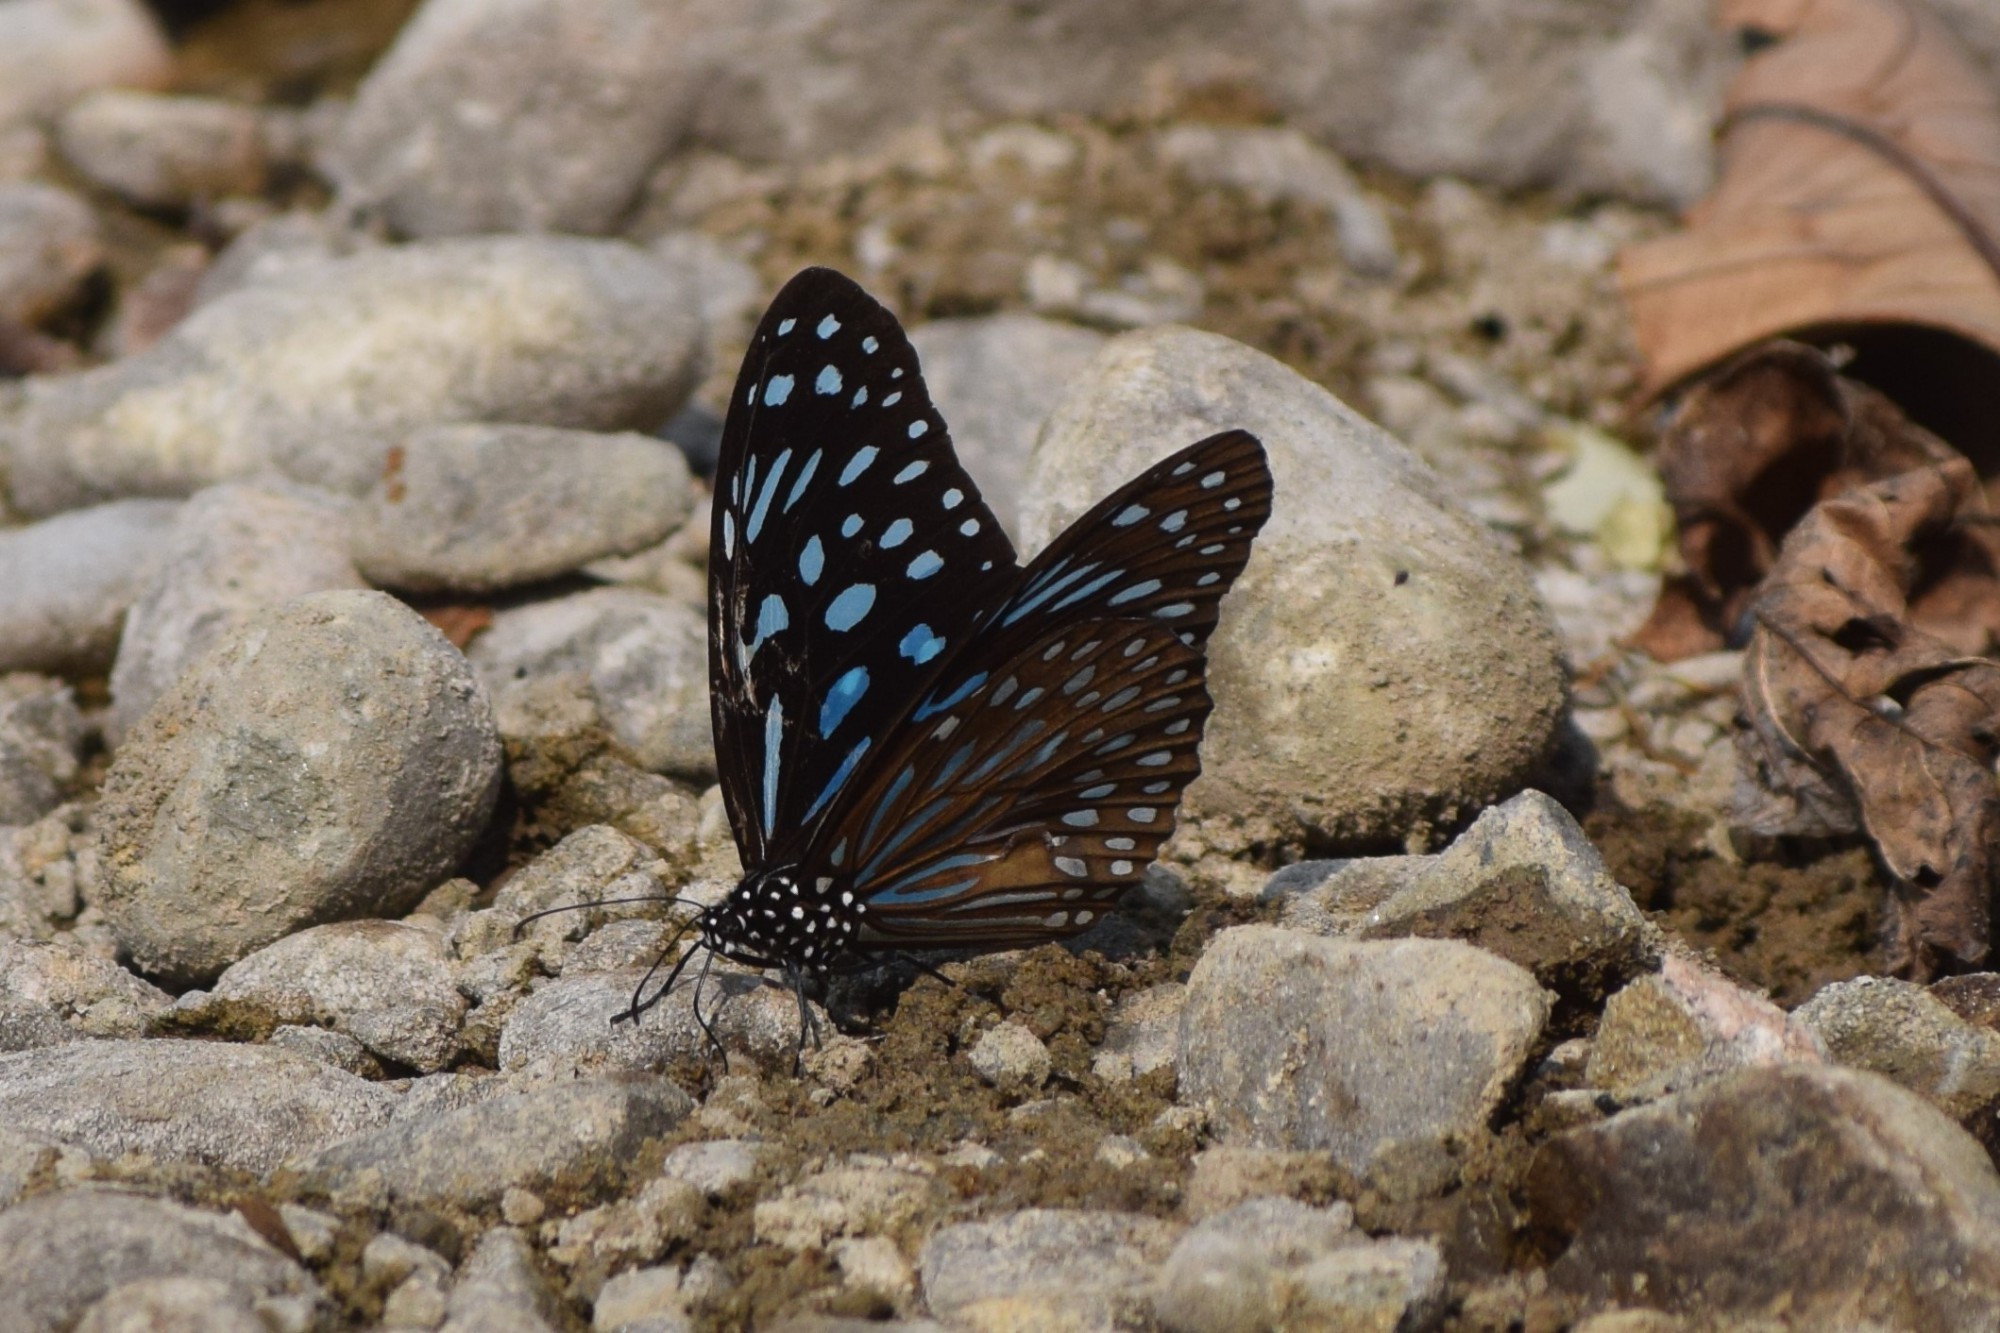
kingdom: Animalia
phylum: Arthropoda
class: Insecta
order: Lepidoptera
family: Nymphalidae
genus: Tirumala
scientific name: Tirumala septentrionis
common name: Dark blue tiger butterfly
